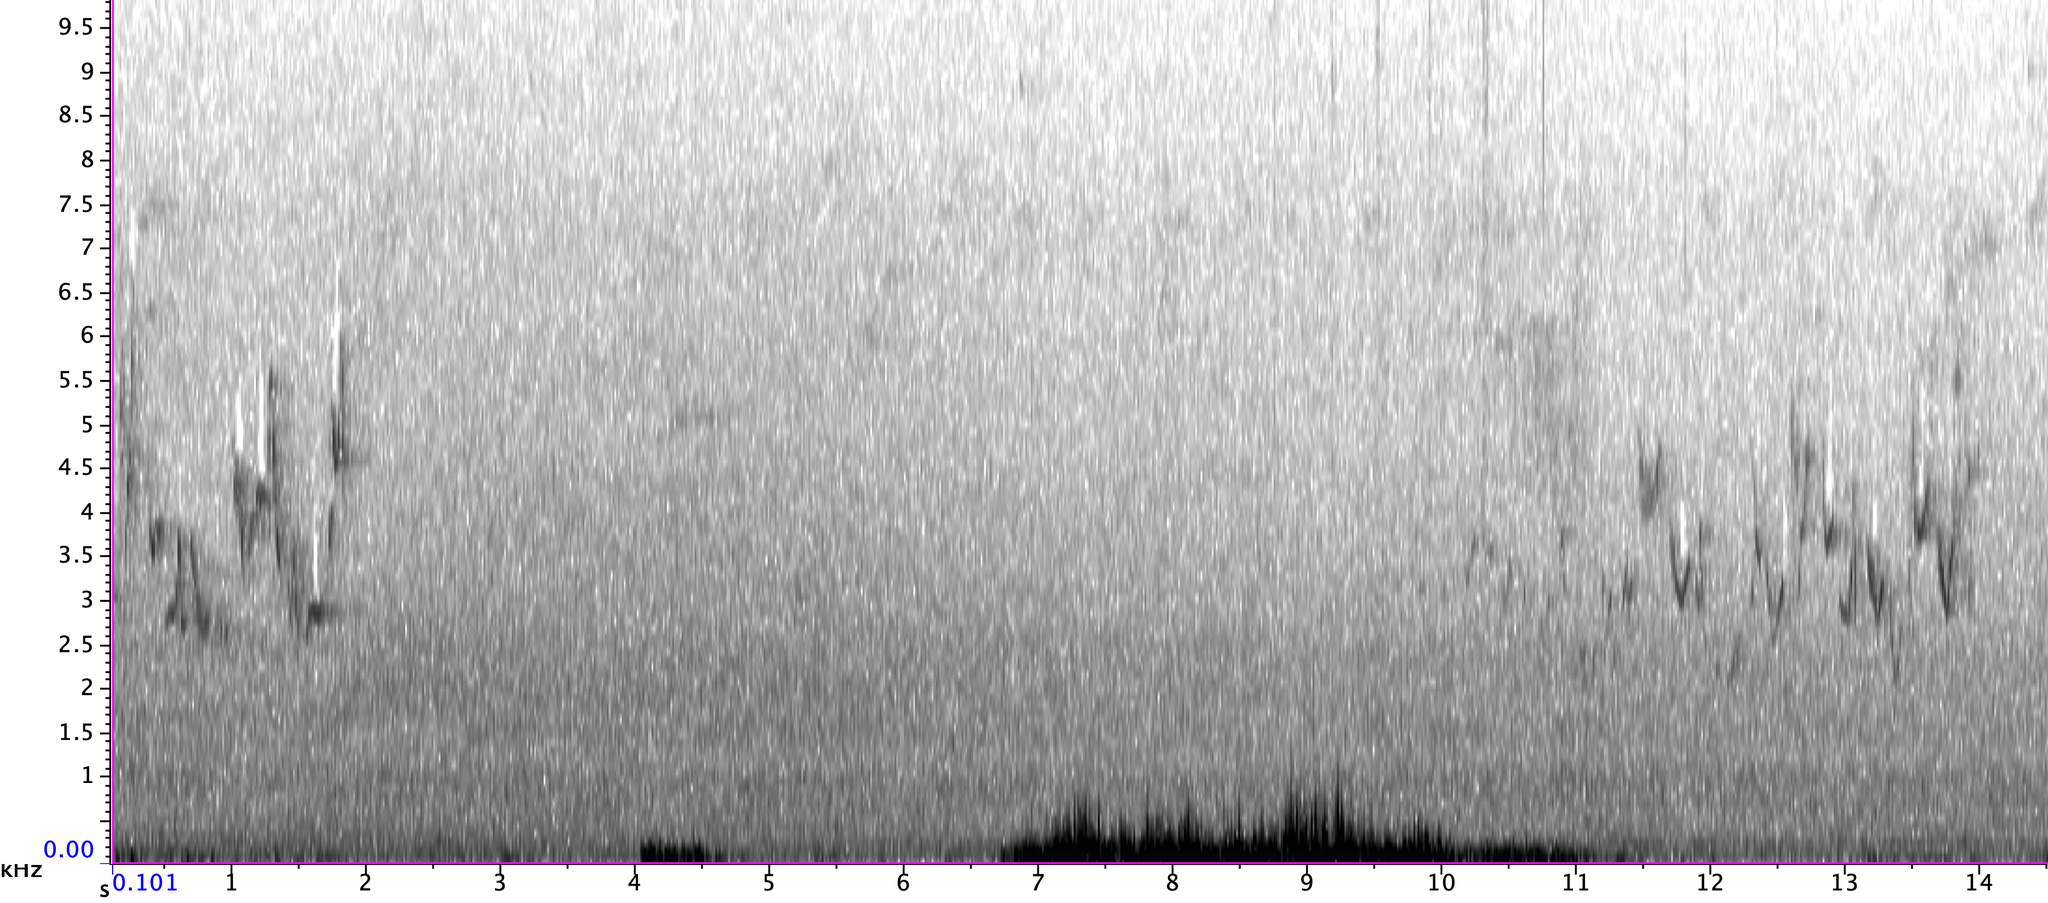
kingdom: Animalia
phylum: Chordata
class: Aves
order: Passeriformes
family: Vireonidae
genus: Vireo
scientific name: Vireo gilvus
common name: Warbling vireo
